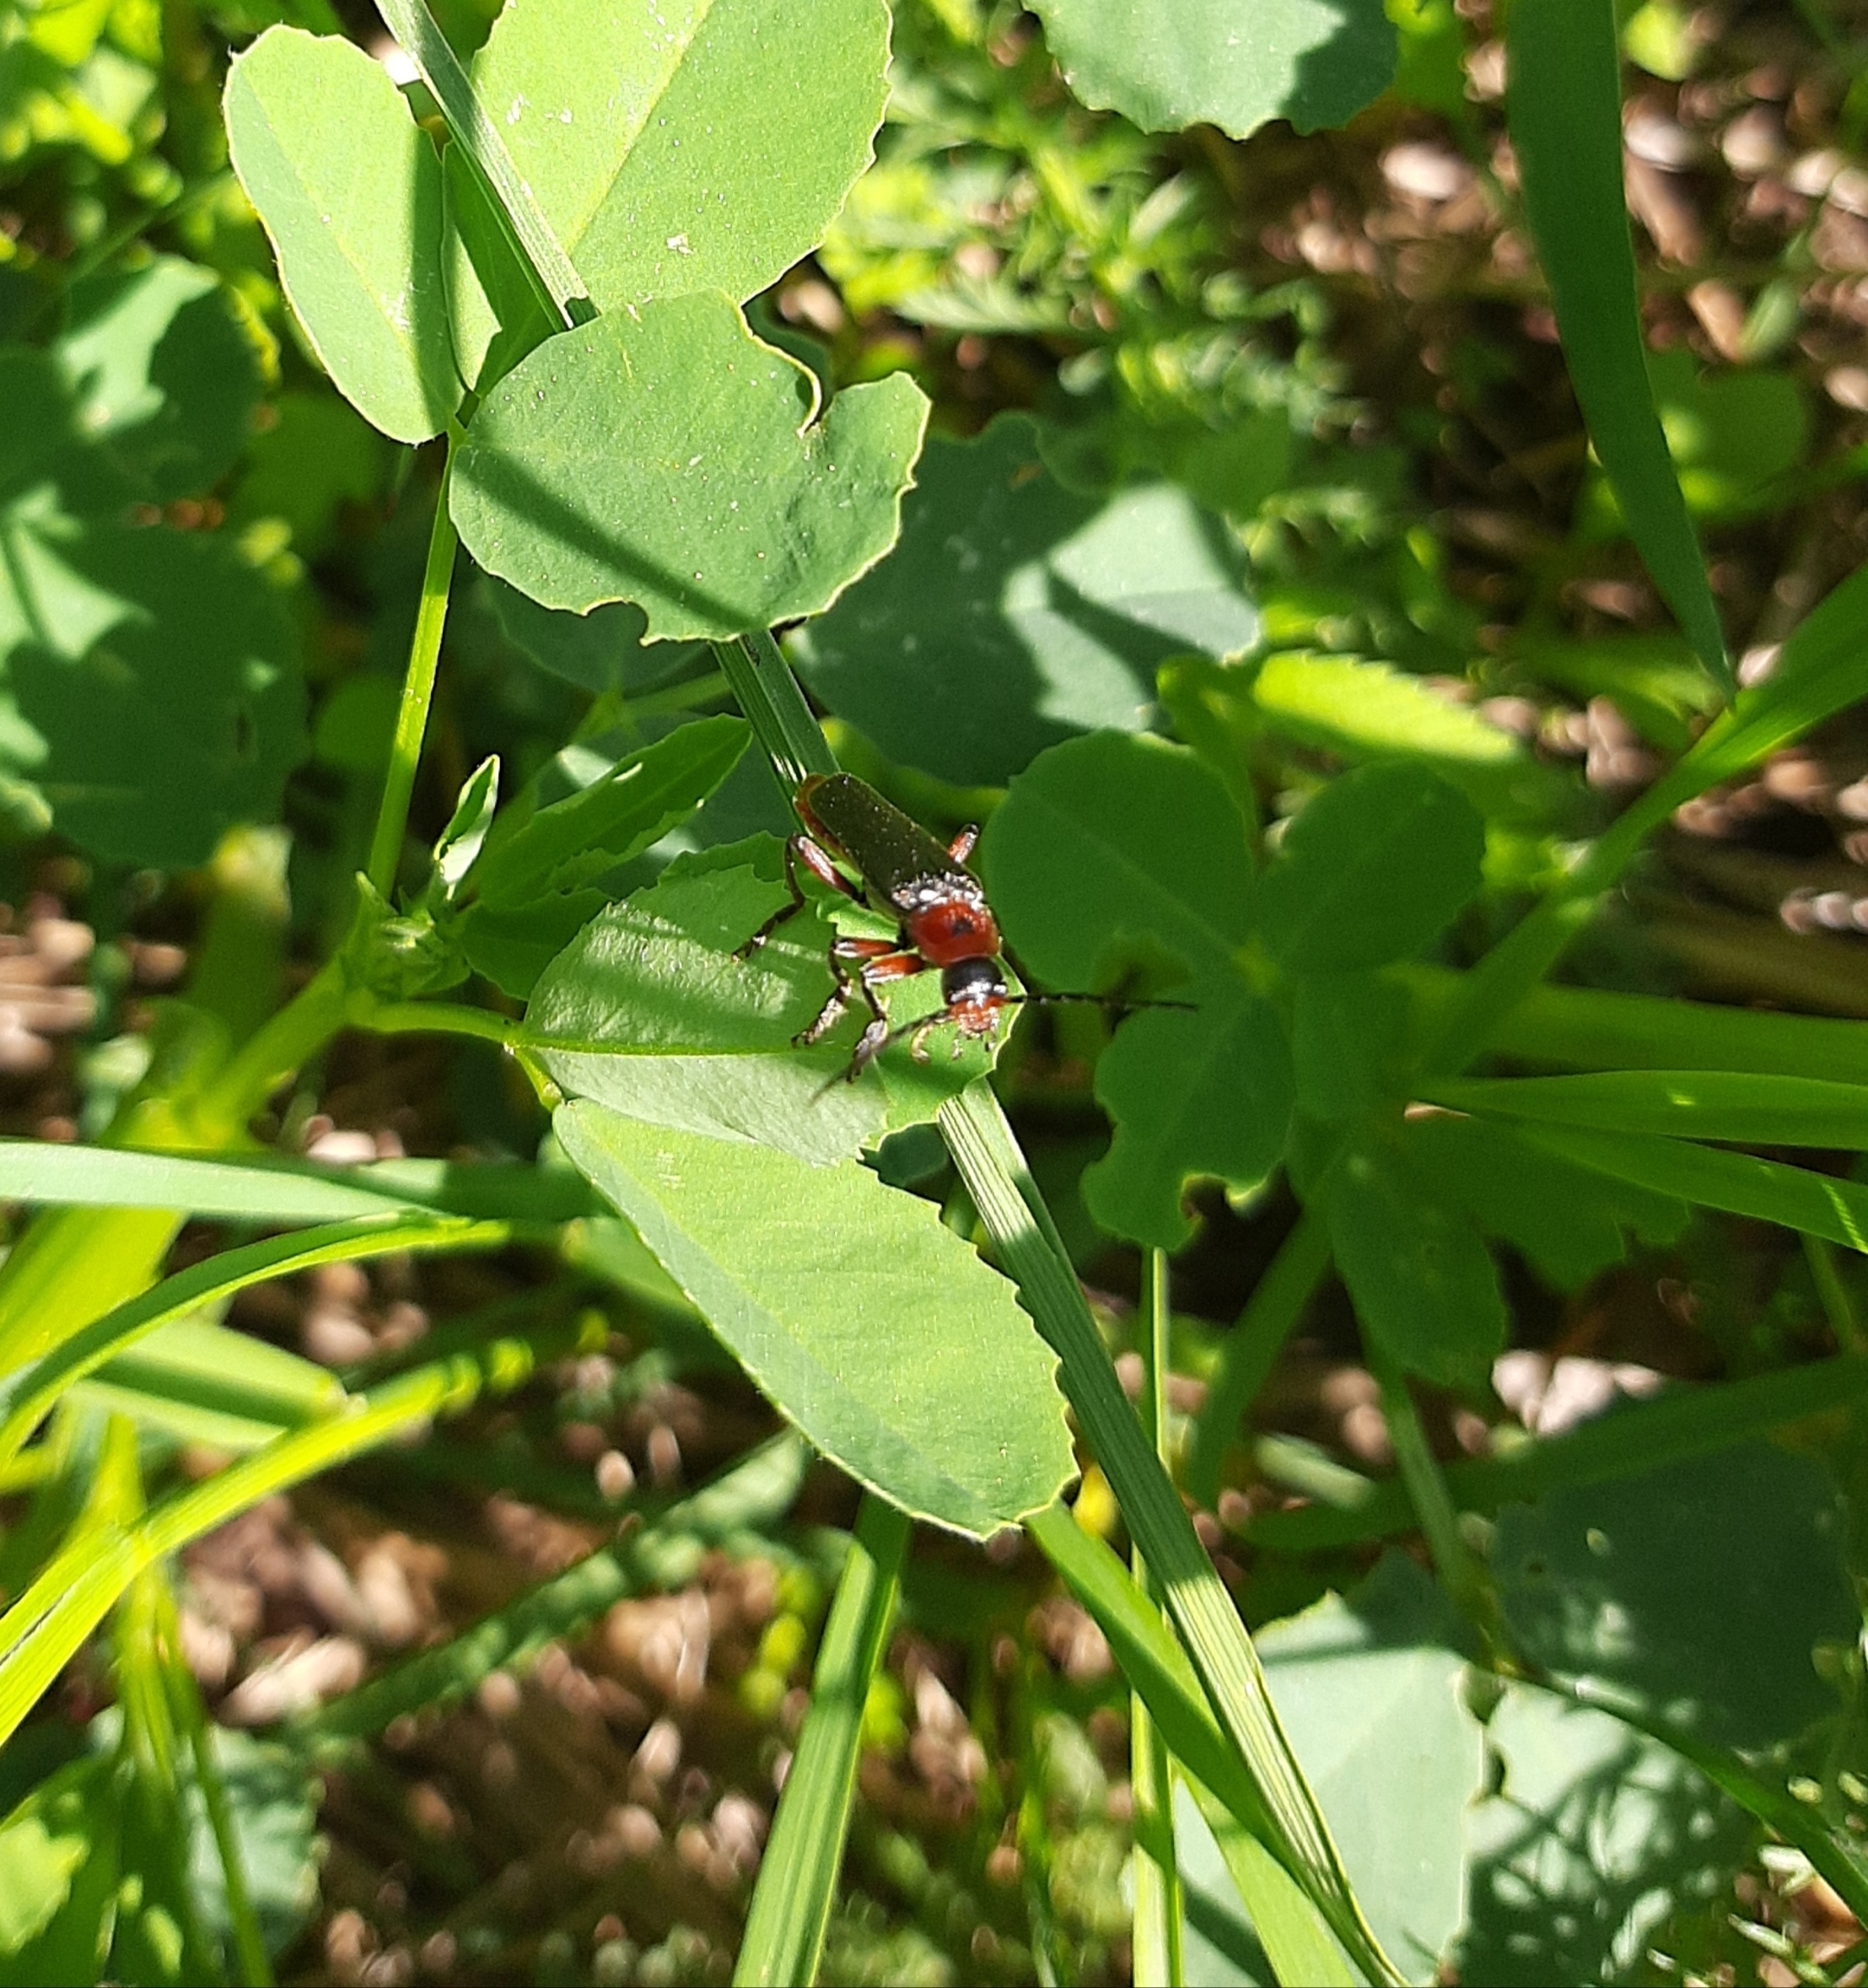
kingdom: Animalia
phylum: Arthropoda
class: Insecta
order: Coleoptera
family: Cantharidae
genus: Cantharis
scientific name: Cantharis rustica
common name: Soldier beetle
